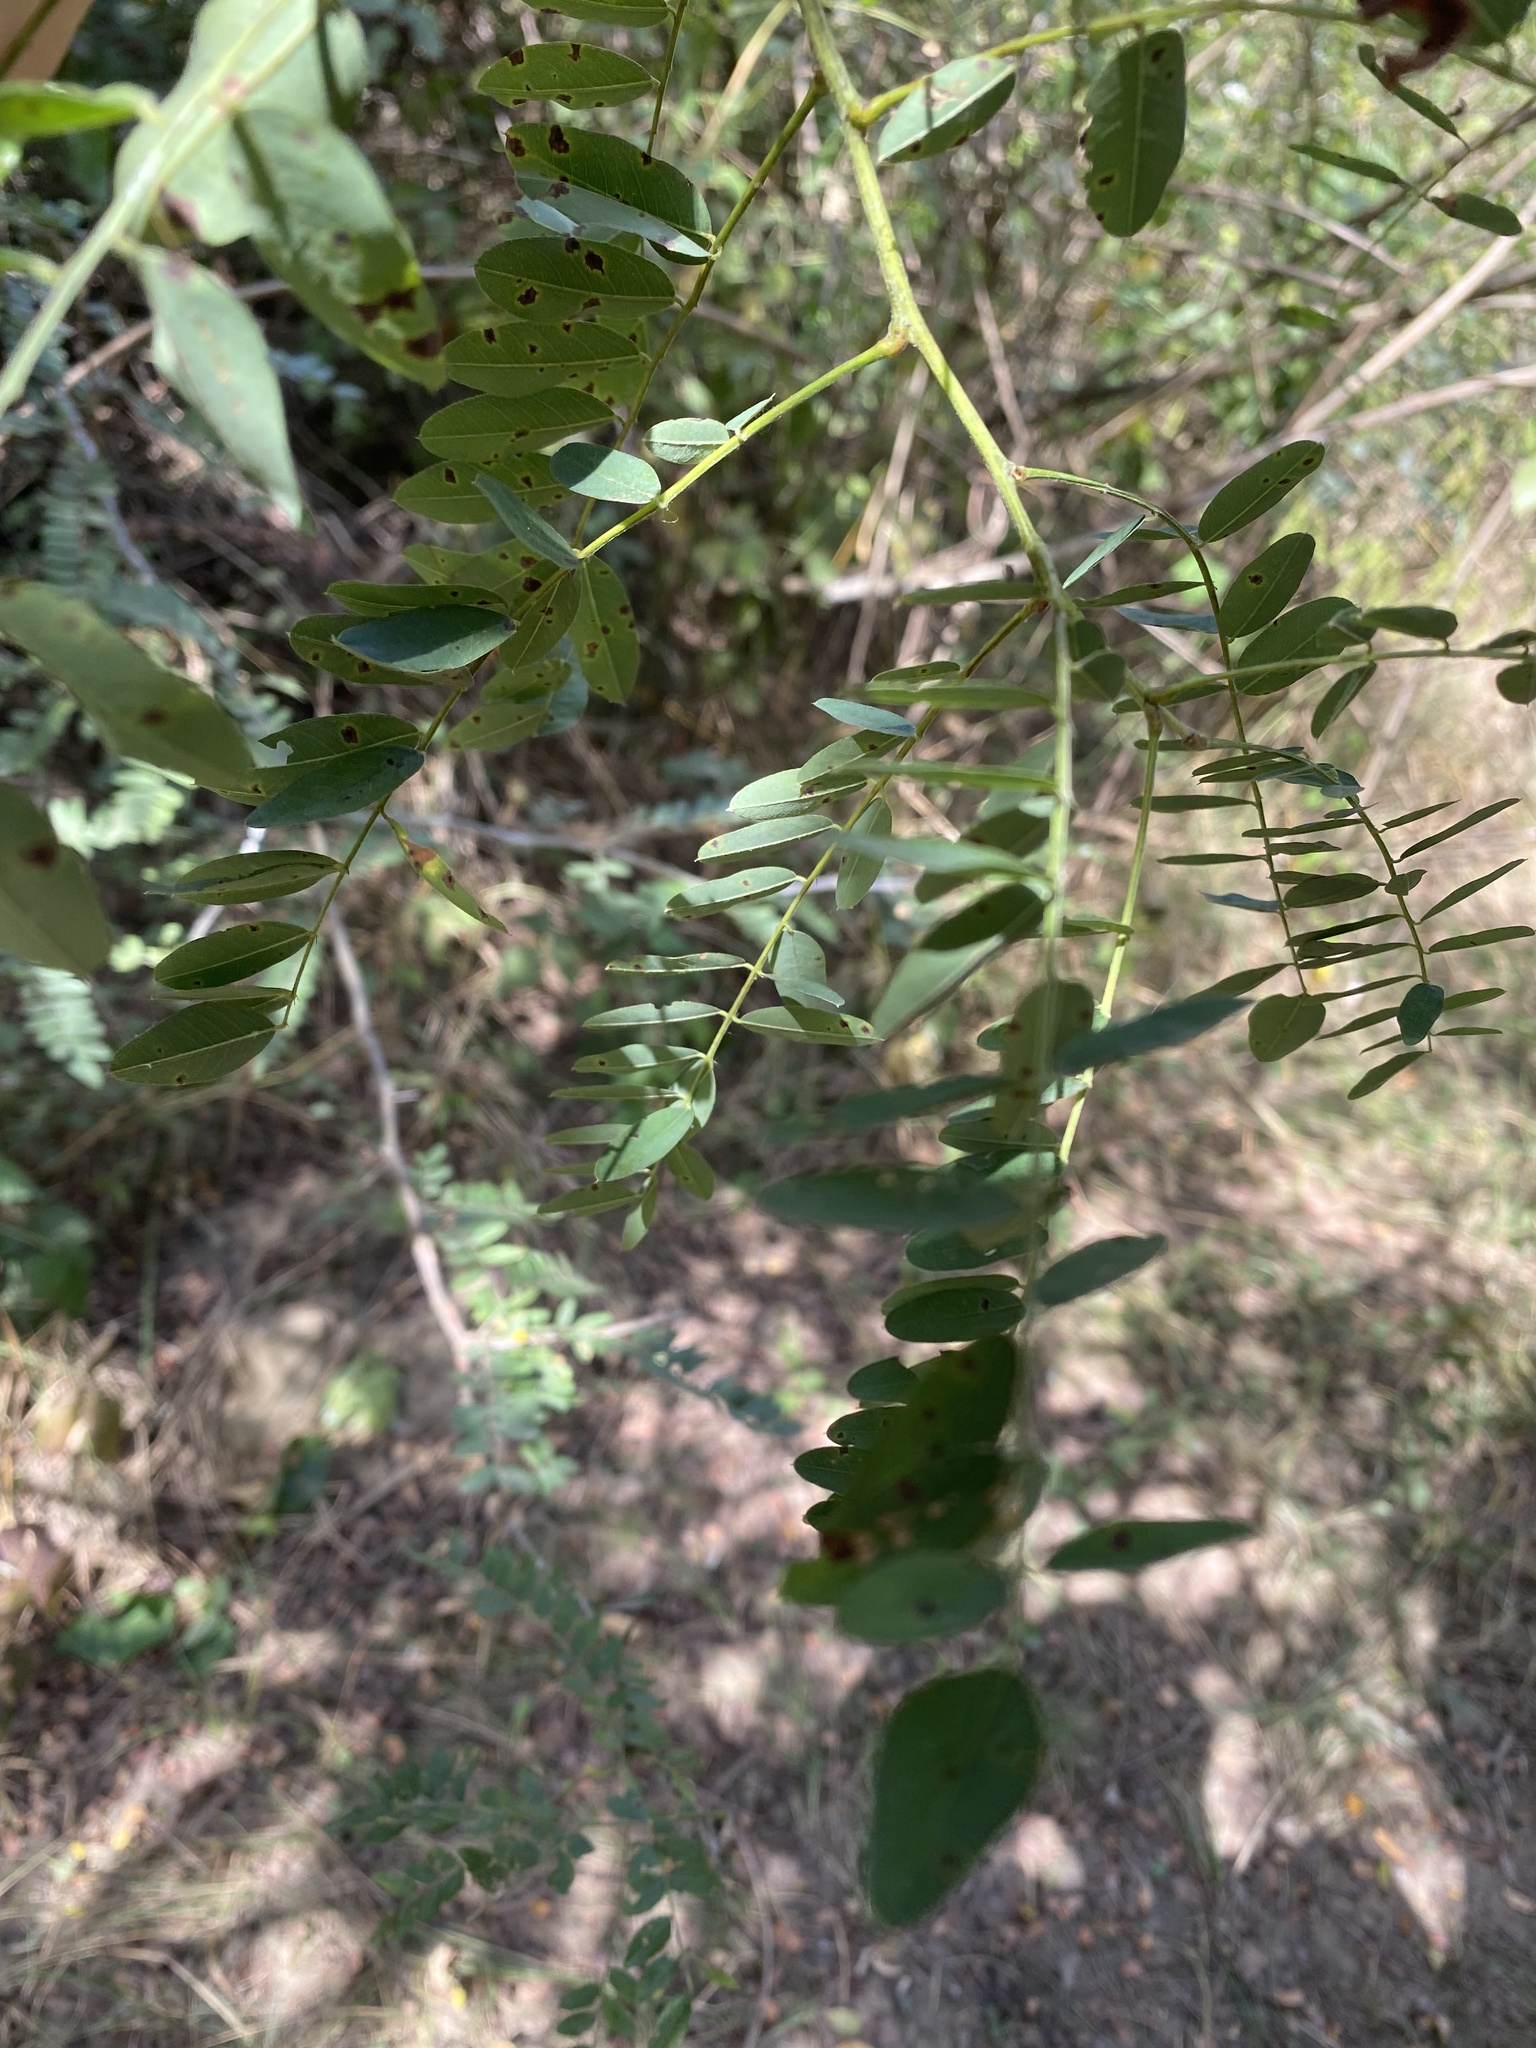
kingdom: Plantae
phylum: Tracheophyta
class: Magnoliopsida
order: Fabales
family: Fabaceae
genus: Amorpha
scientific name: Amorpha fruticosa
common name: False indigo
